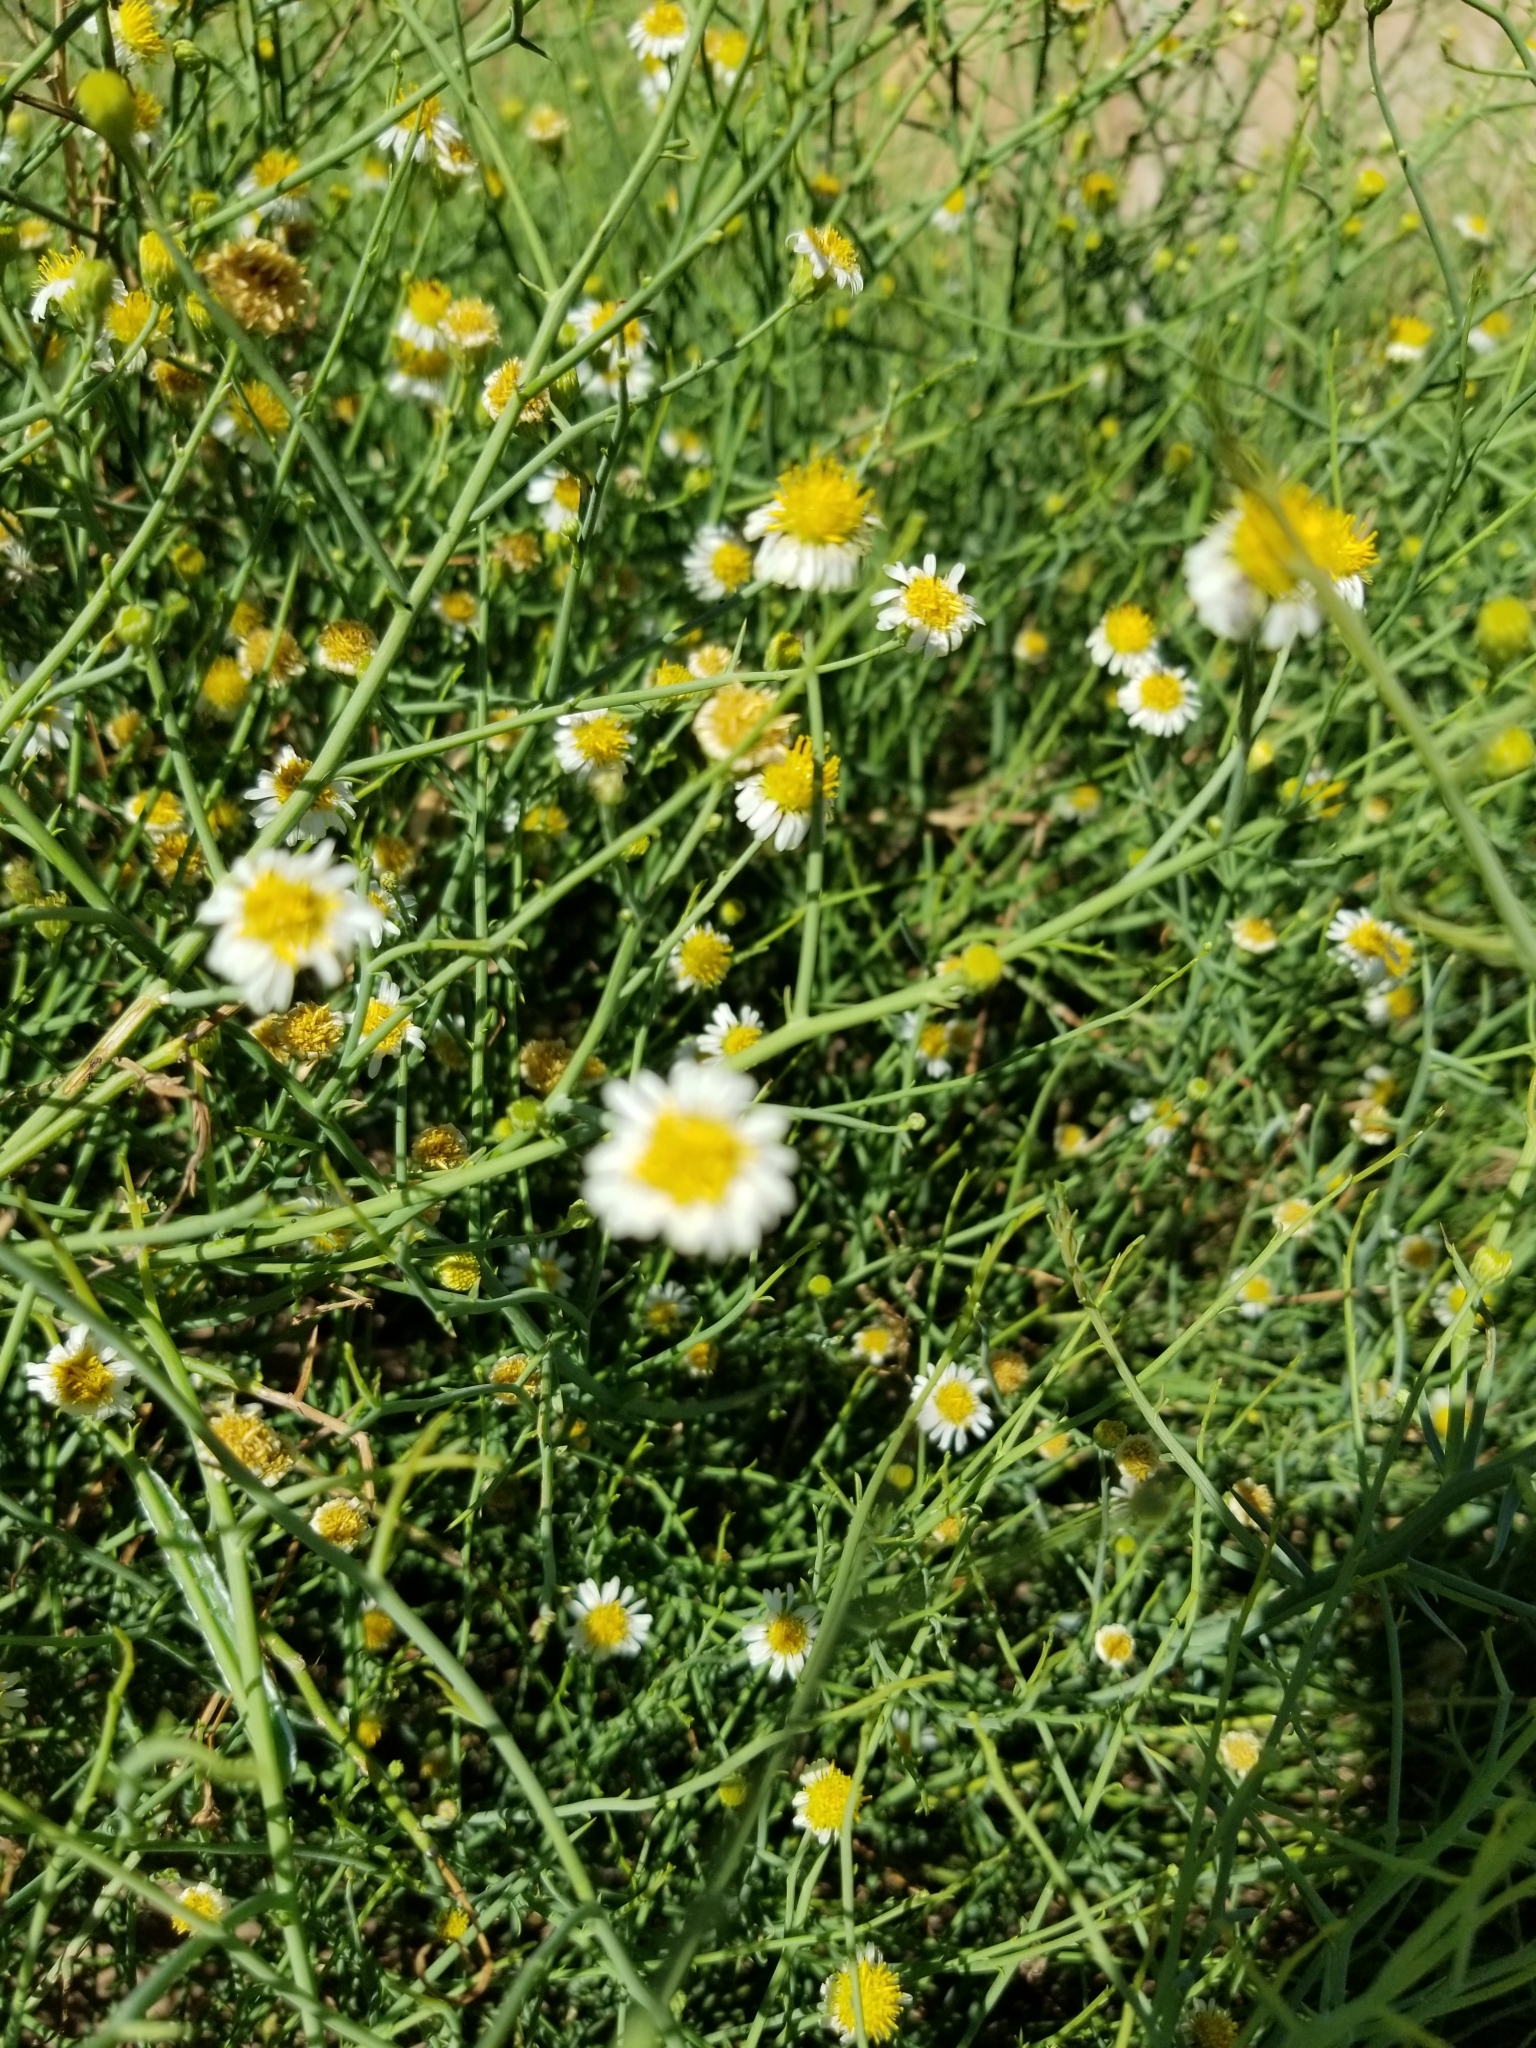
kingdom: Plantae
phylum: Tracheophyta
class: Magnoliopsida
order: Asterales
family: Asteraceae
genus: Chloracantha
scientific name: Chloracantha spinosa
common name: Mexican devilweed
